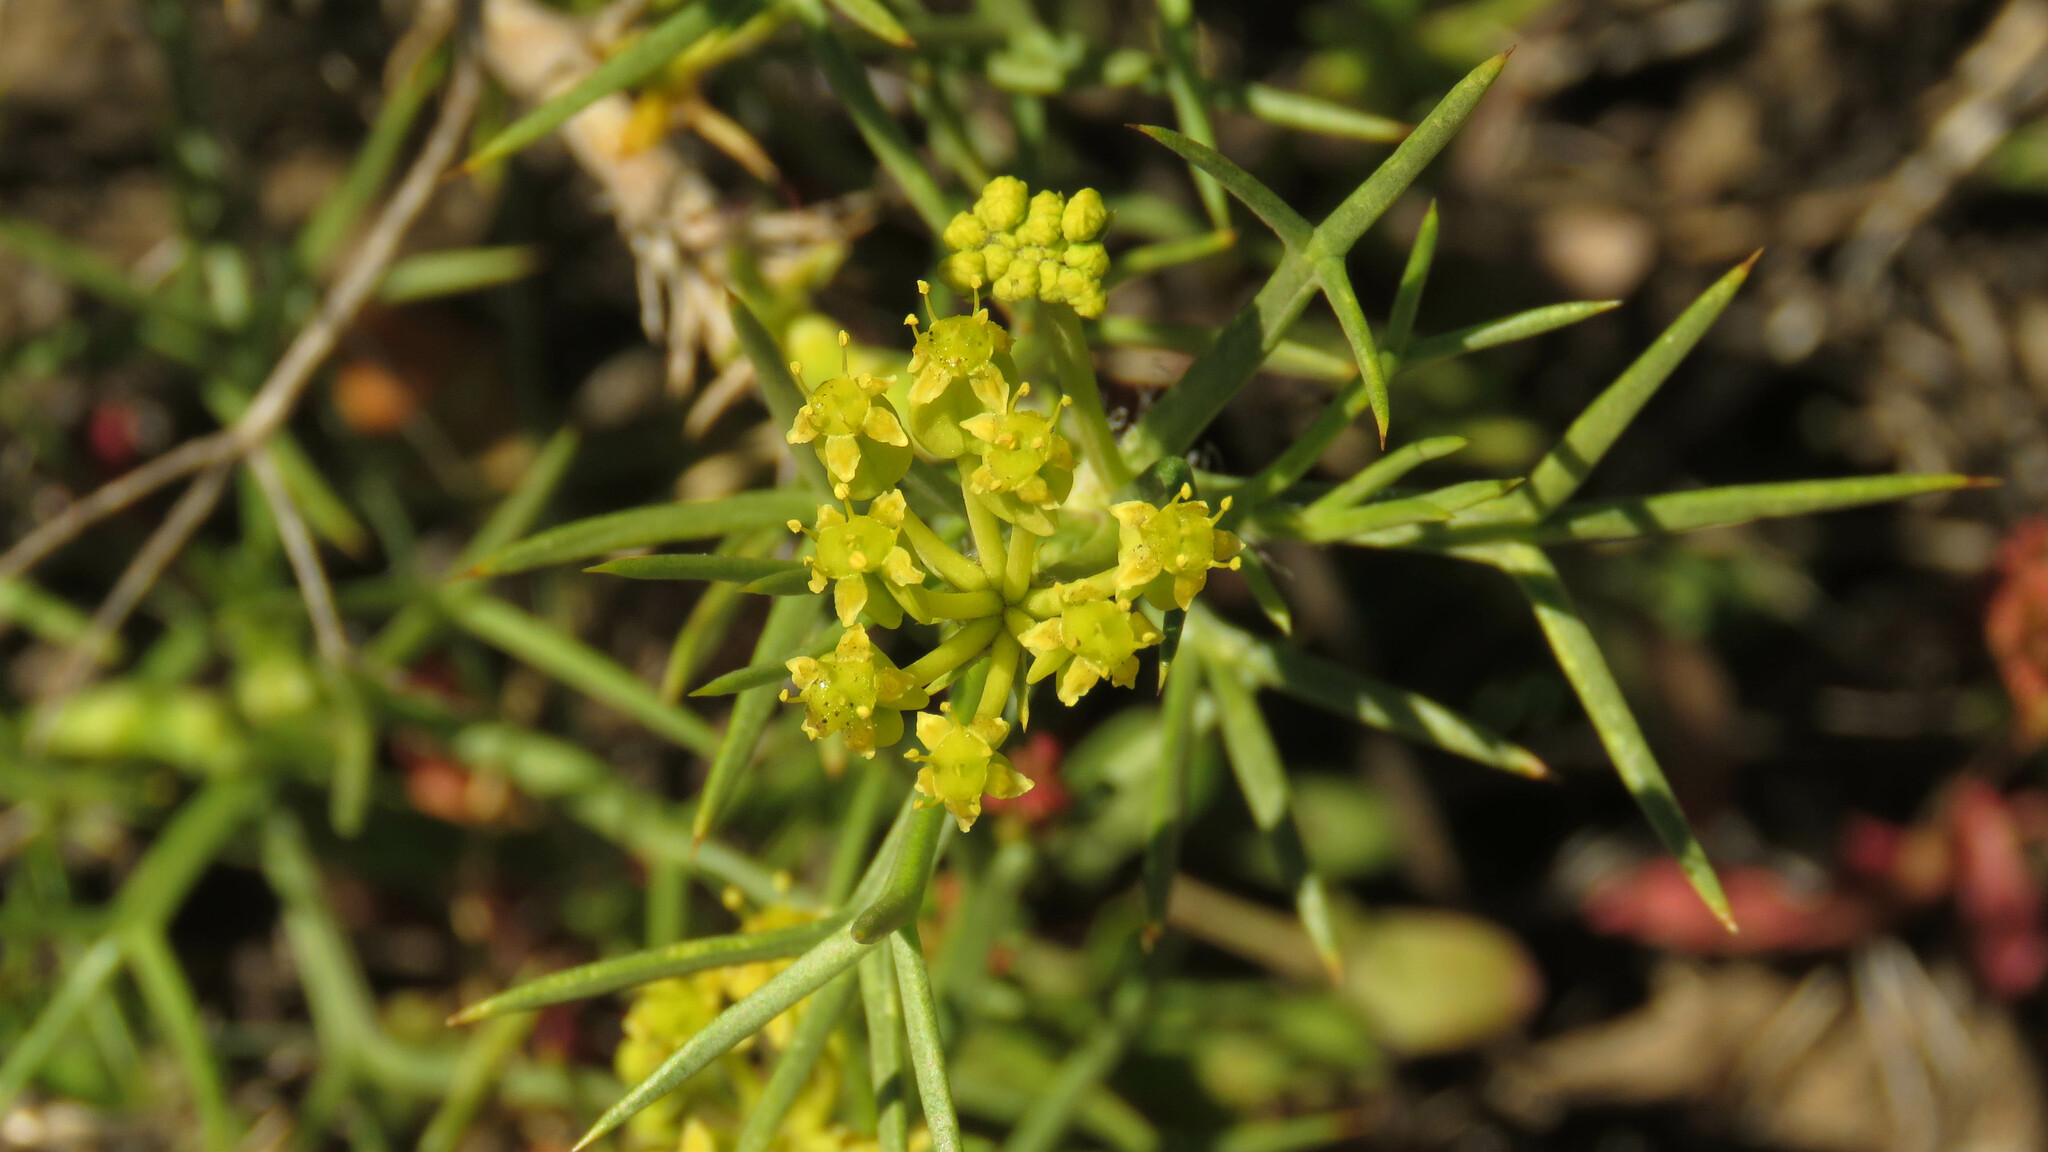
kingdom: Plantae
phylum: Tracheophyta
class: Magnoliopsida
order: Apiales
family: Apiaceae
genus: Azorella
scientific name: Azorella prolifera
